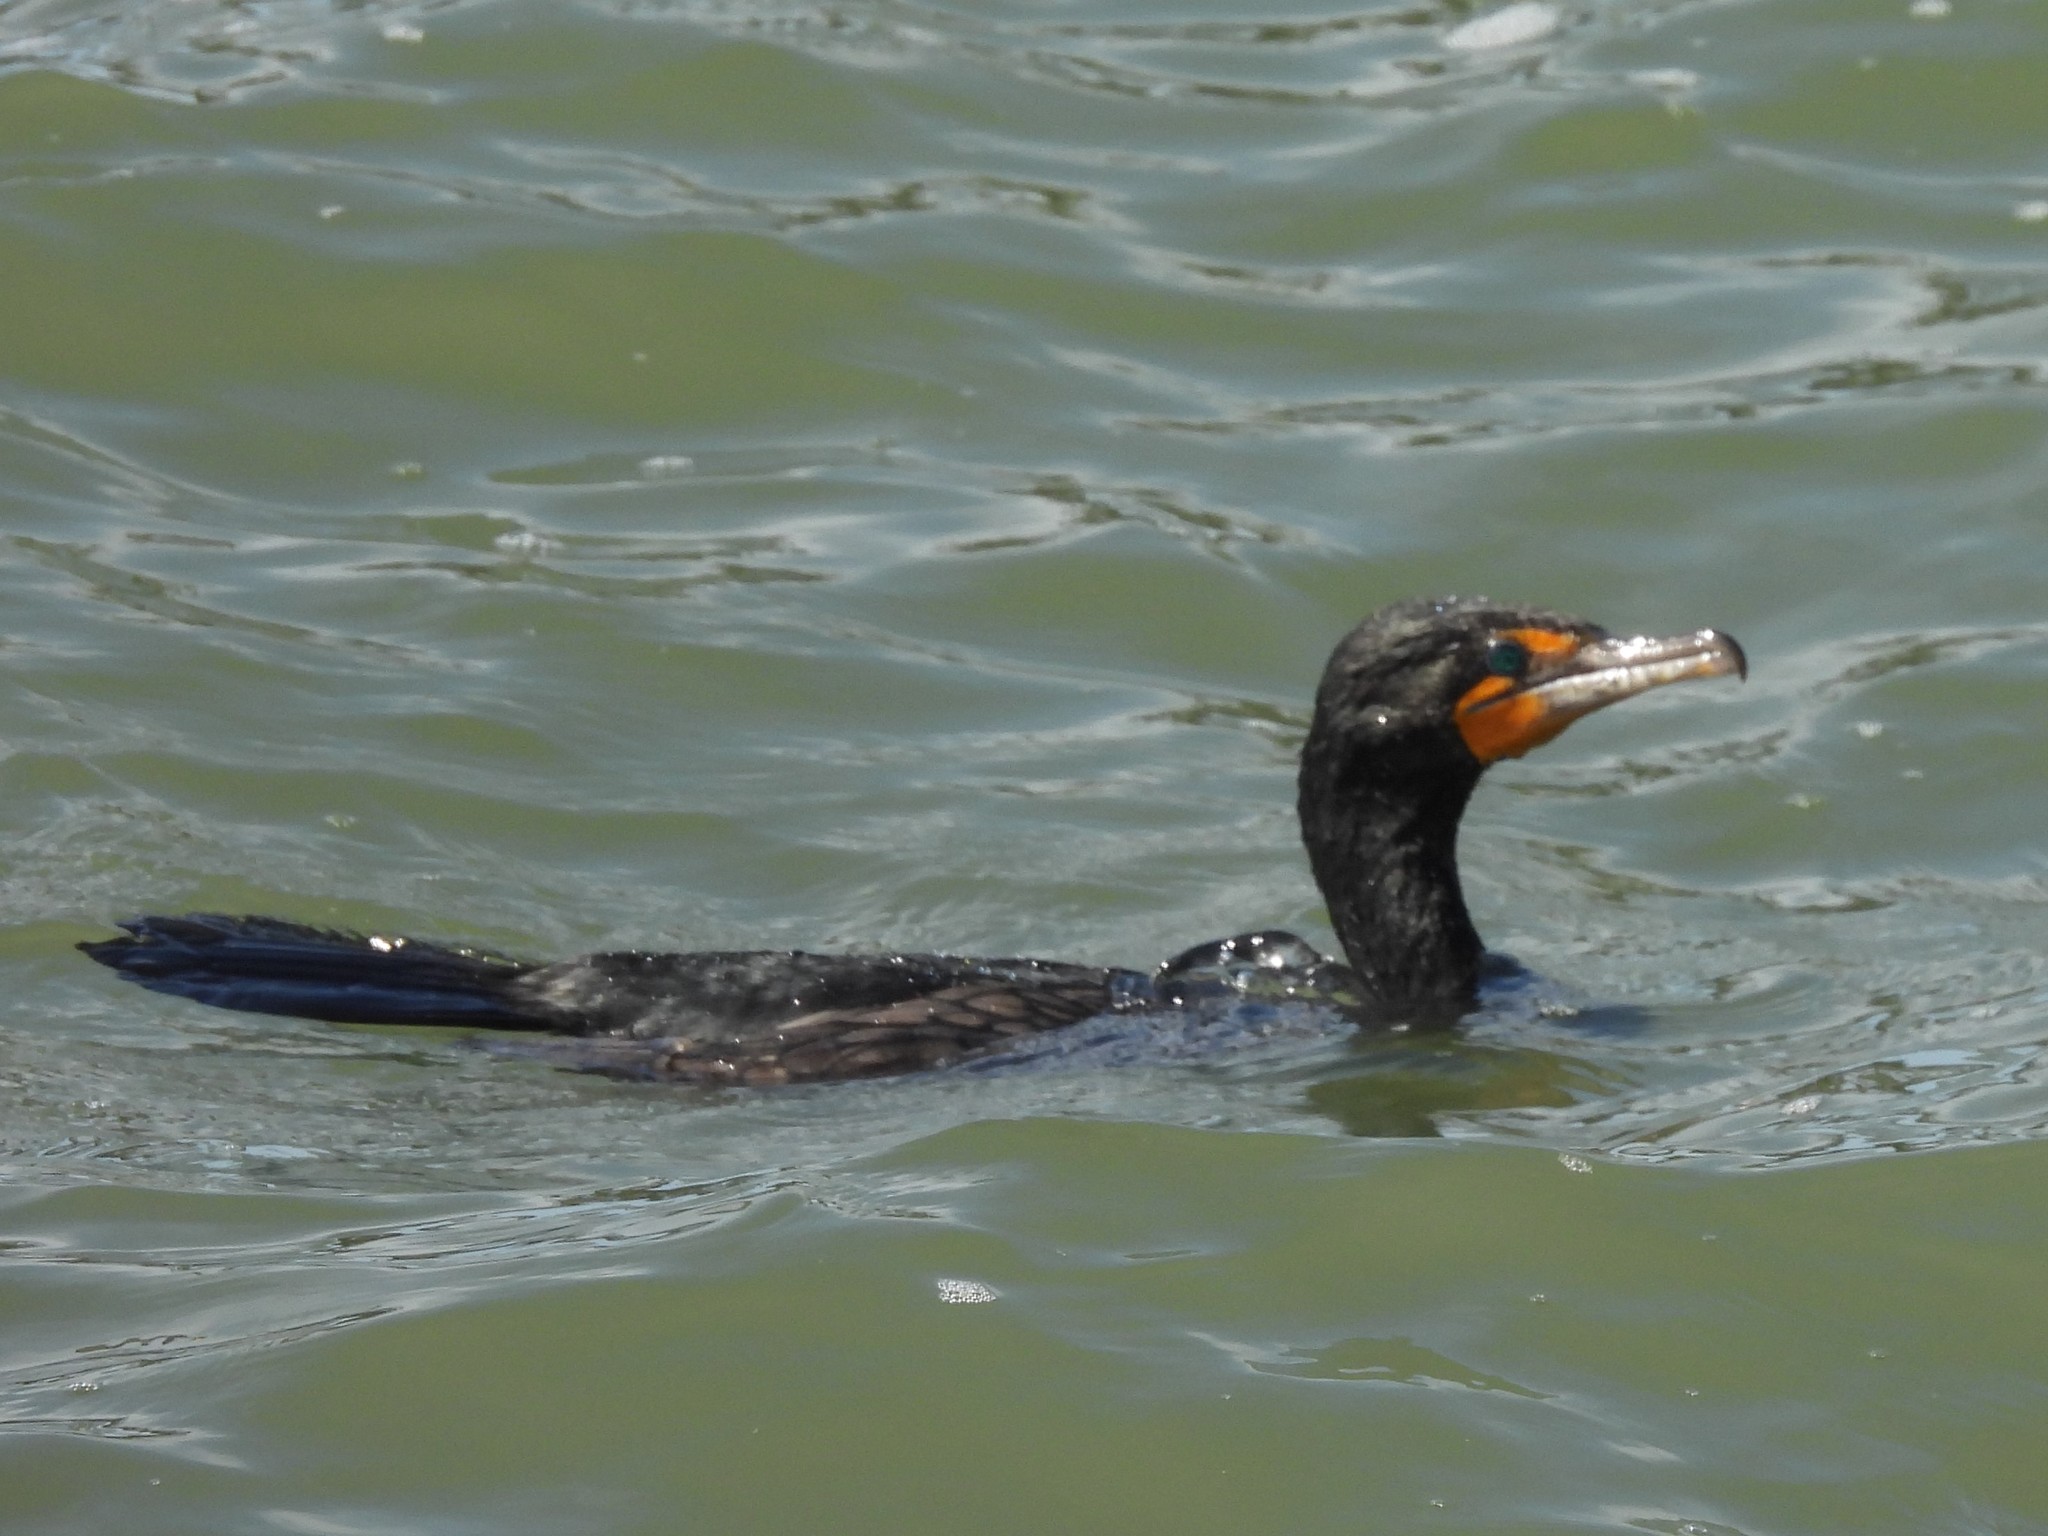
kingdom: Animalia
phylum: Chordata
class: Aves
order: Suliformes
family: Phalacrocoracidae
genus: Phalacrocorax
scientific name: Phalacrocorax auritus
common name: Double-crested cormorant
